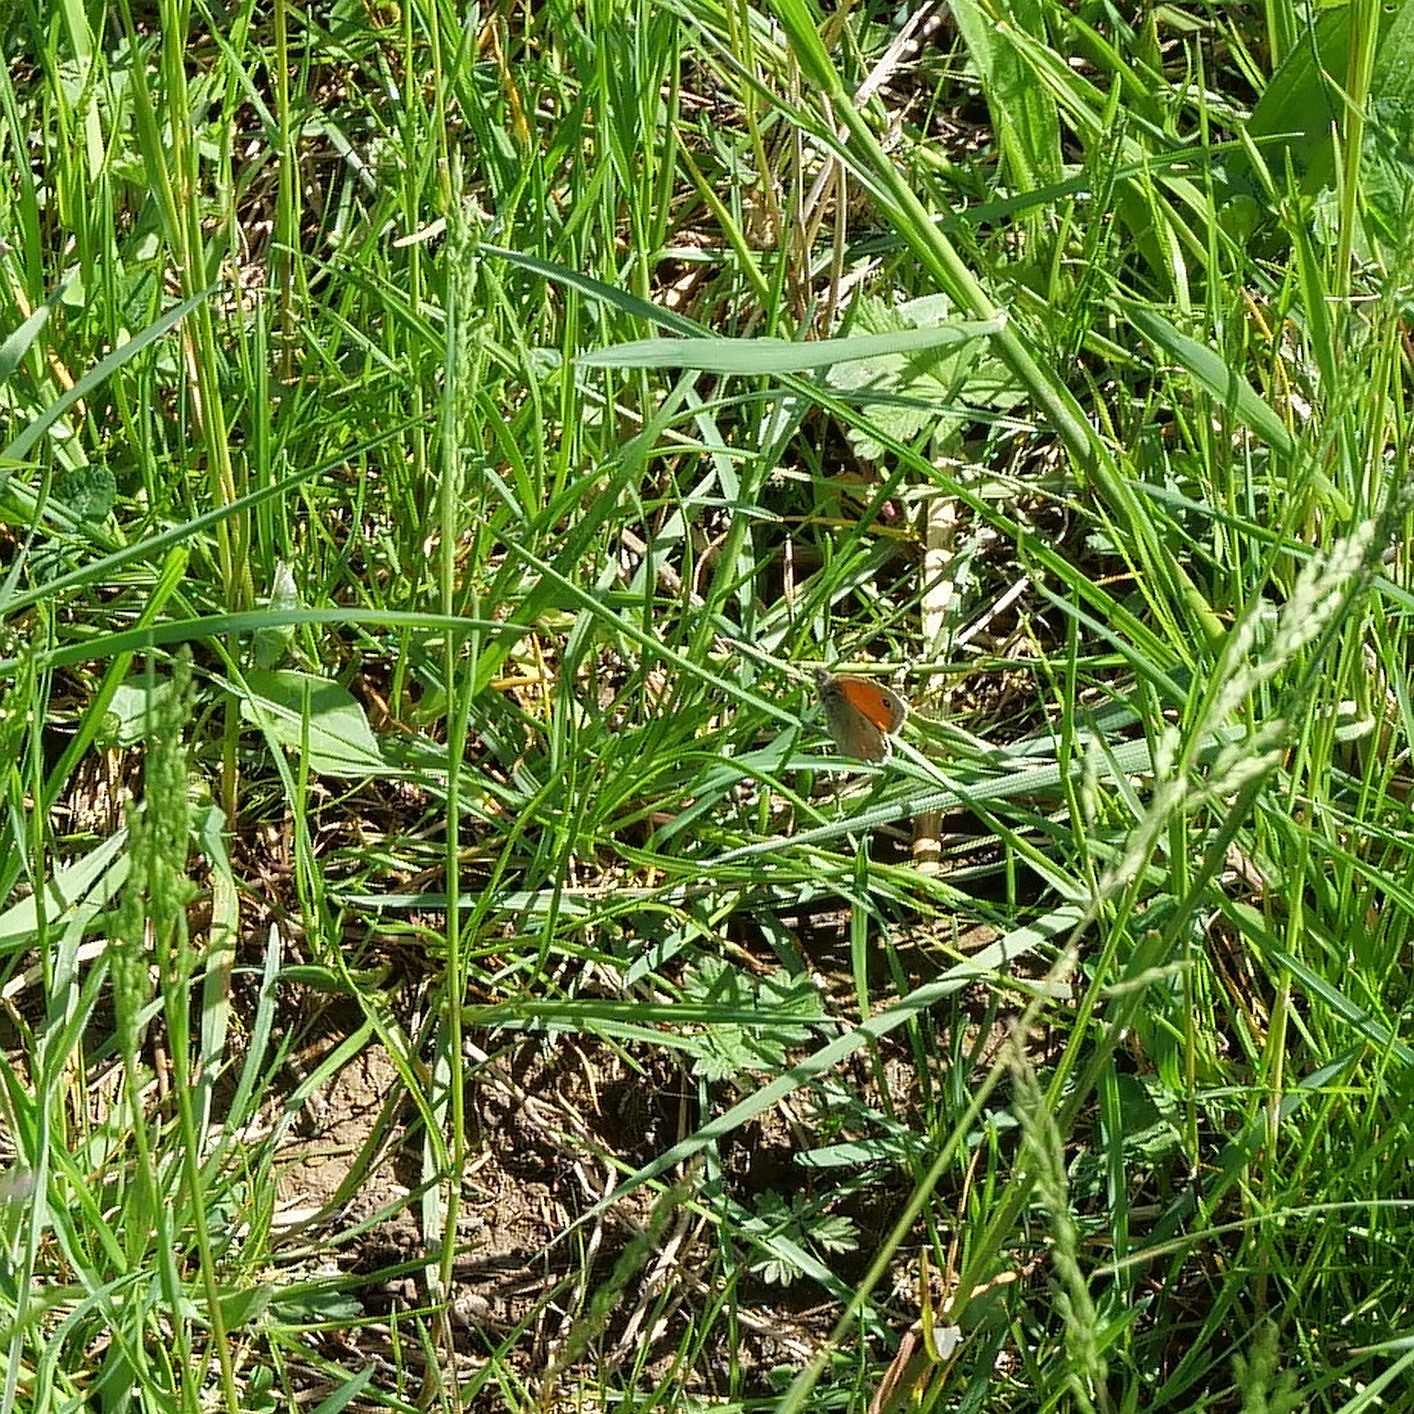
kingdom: Animalia
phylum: Arthropoda
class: Insecta
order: Lepidoptera
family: Nymphalidae
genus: Coenonympha
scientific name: Coenonympha pamphilus
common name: Small heath
